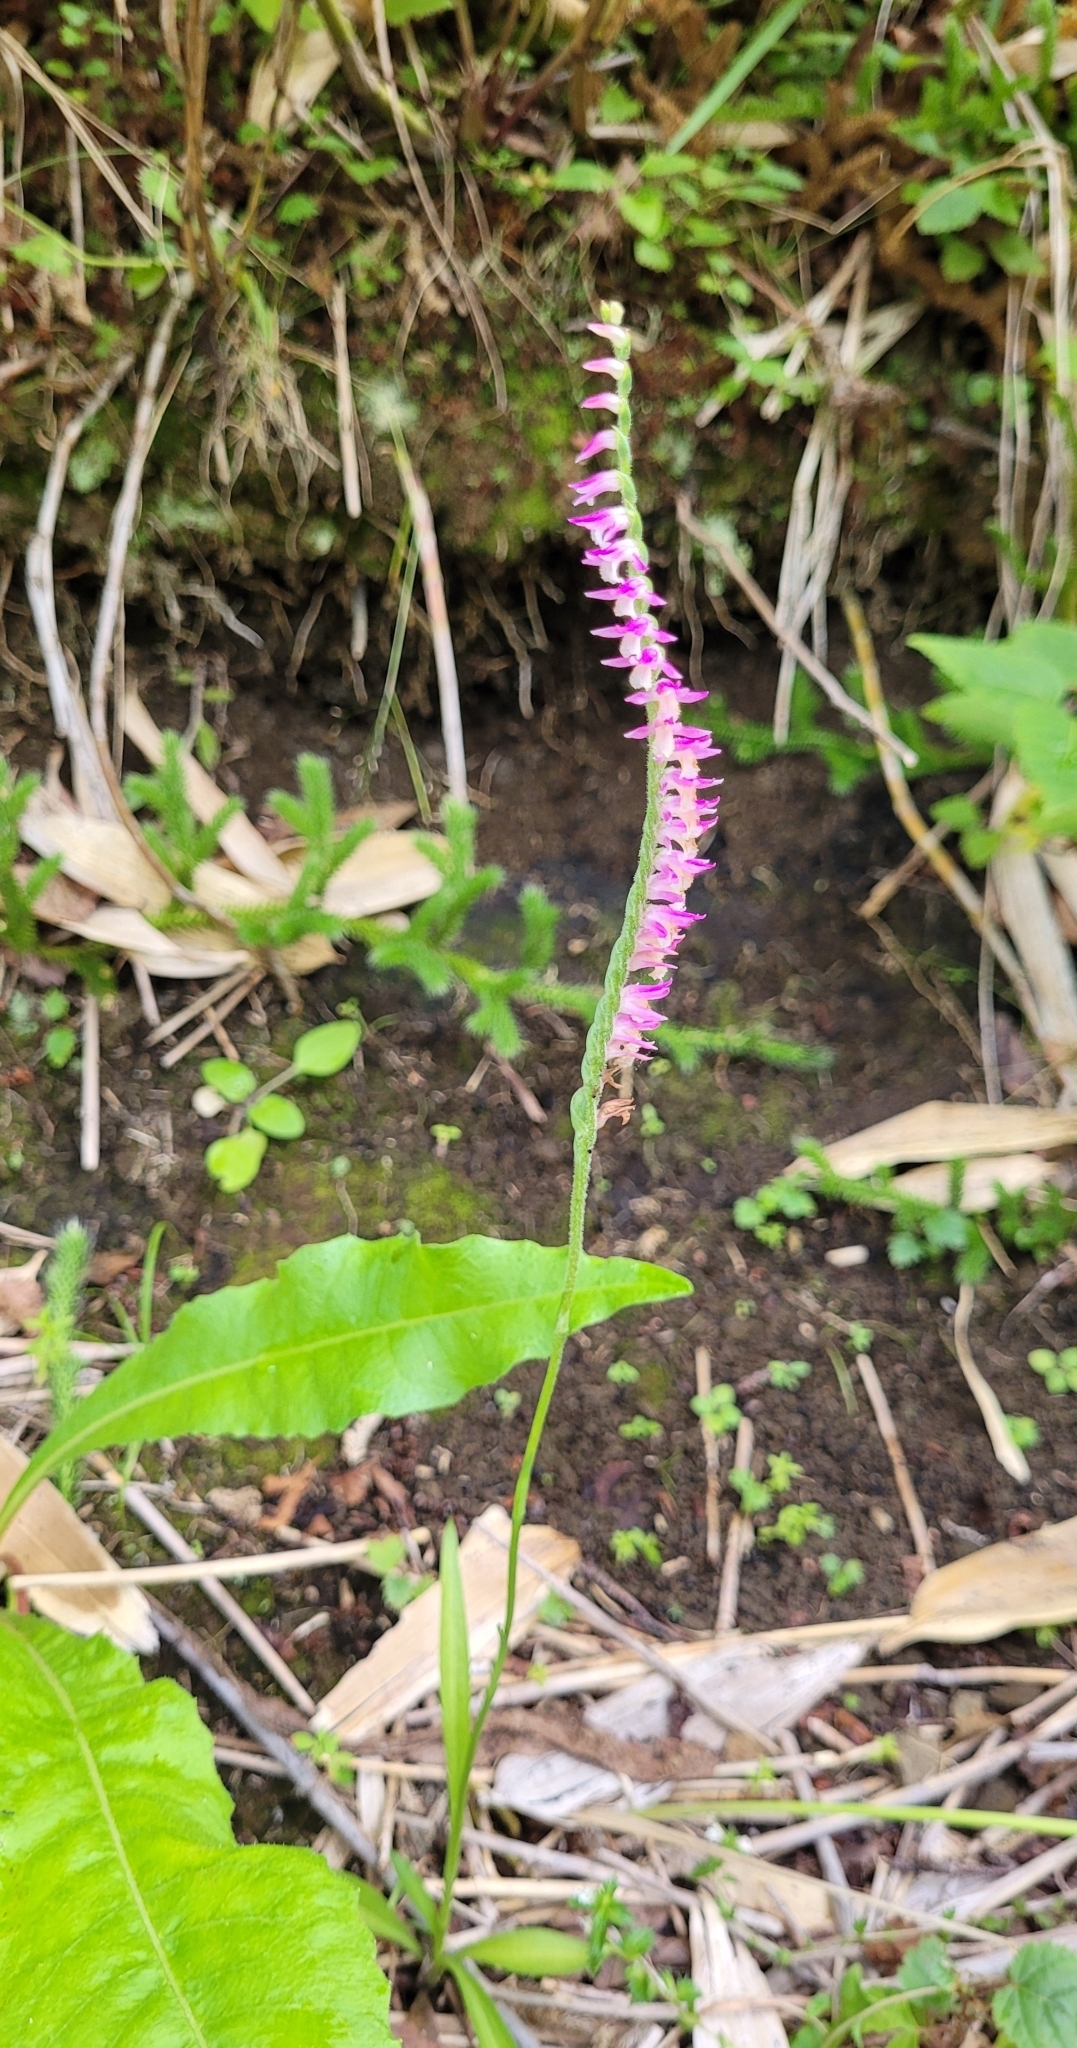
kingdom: Plantae
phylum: Tracheophyta
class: Liliopsida
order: Asparagales
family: Orchidaceae
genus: Spiranthes
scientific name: Spiranthes australis
